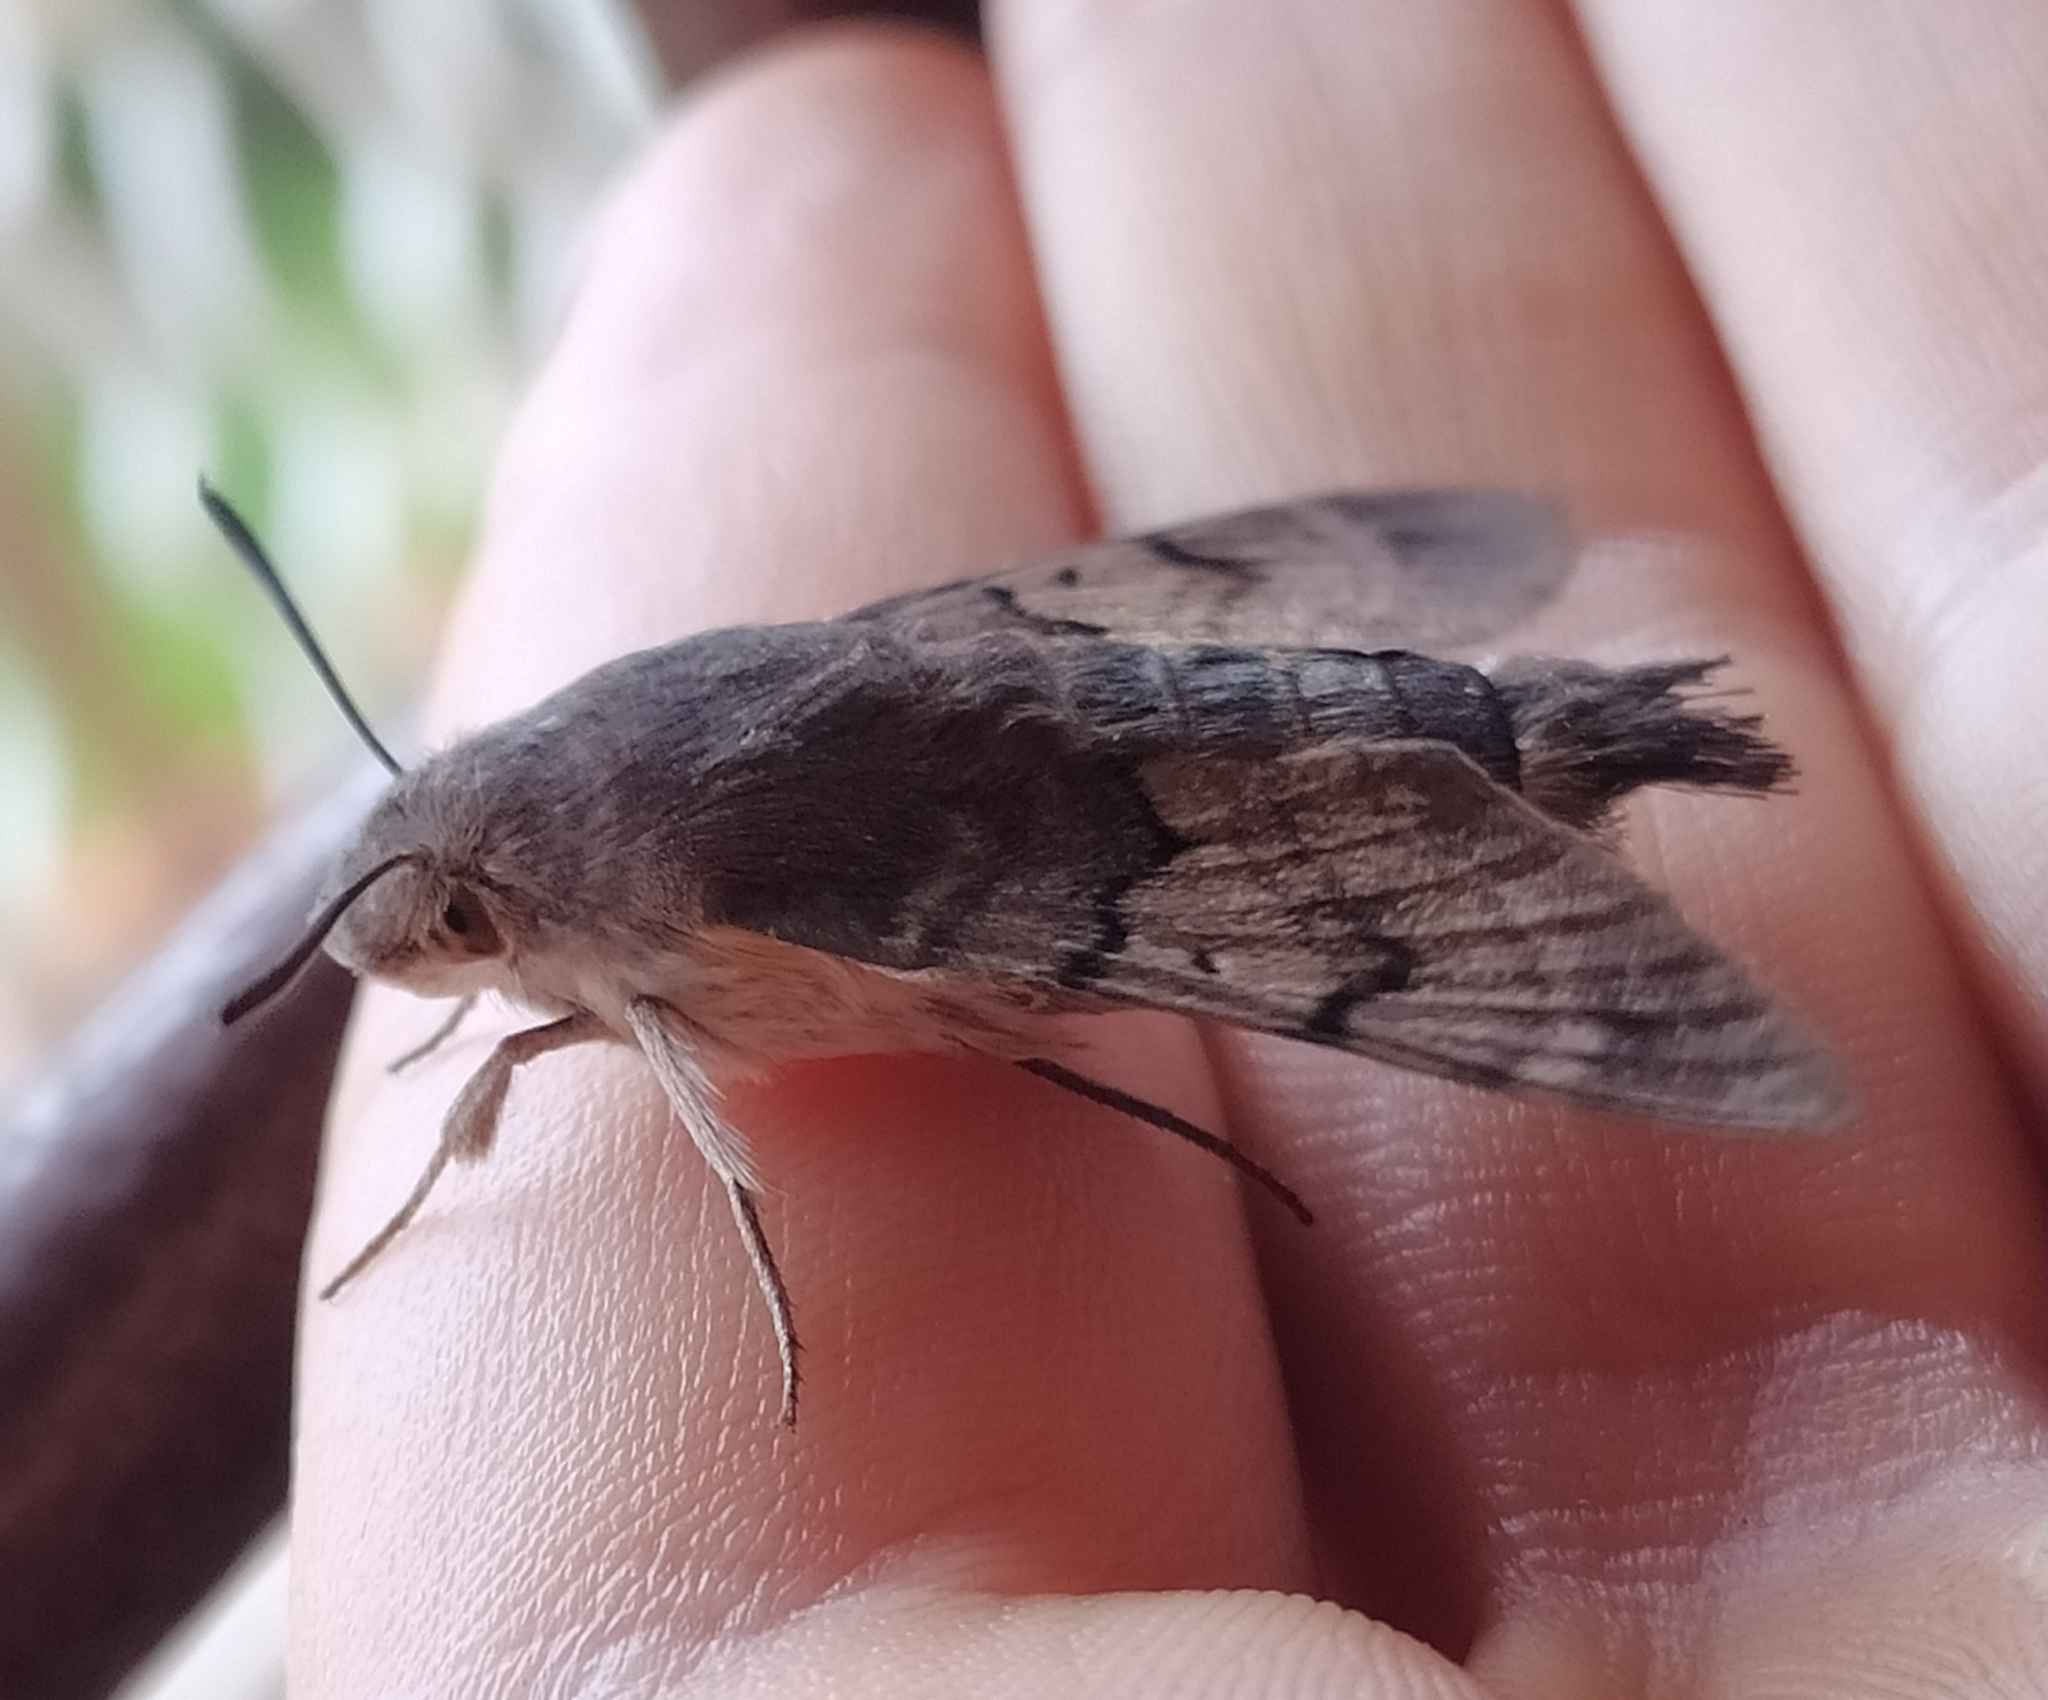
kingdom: Animalia
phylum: Arthropoda
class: Insecta
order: Lepidoptera
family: Sphingidae
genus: Macroglossum
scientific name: Macroglossum stellatarum
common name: Humming-bird hawk-moth
